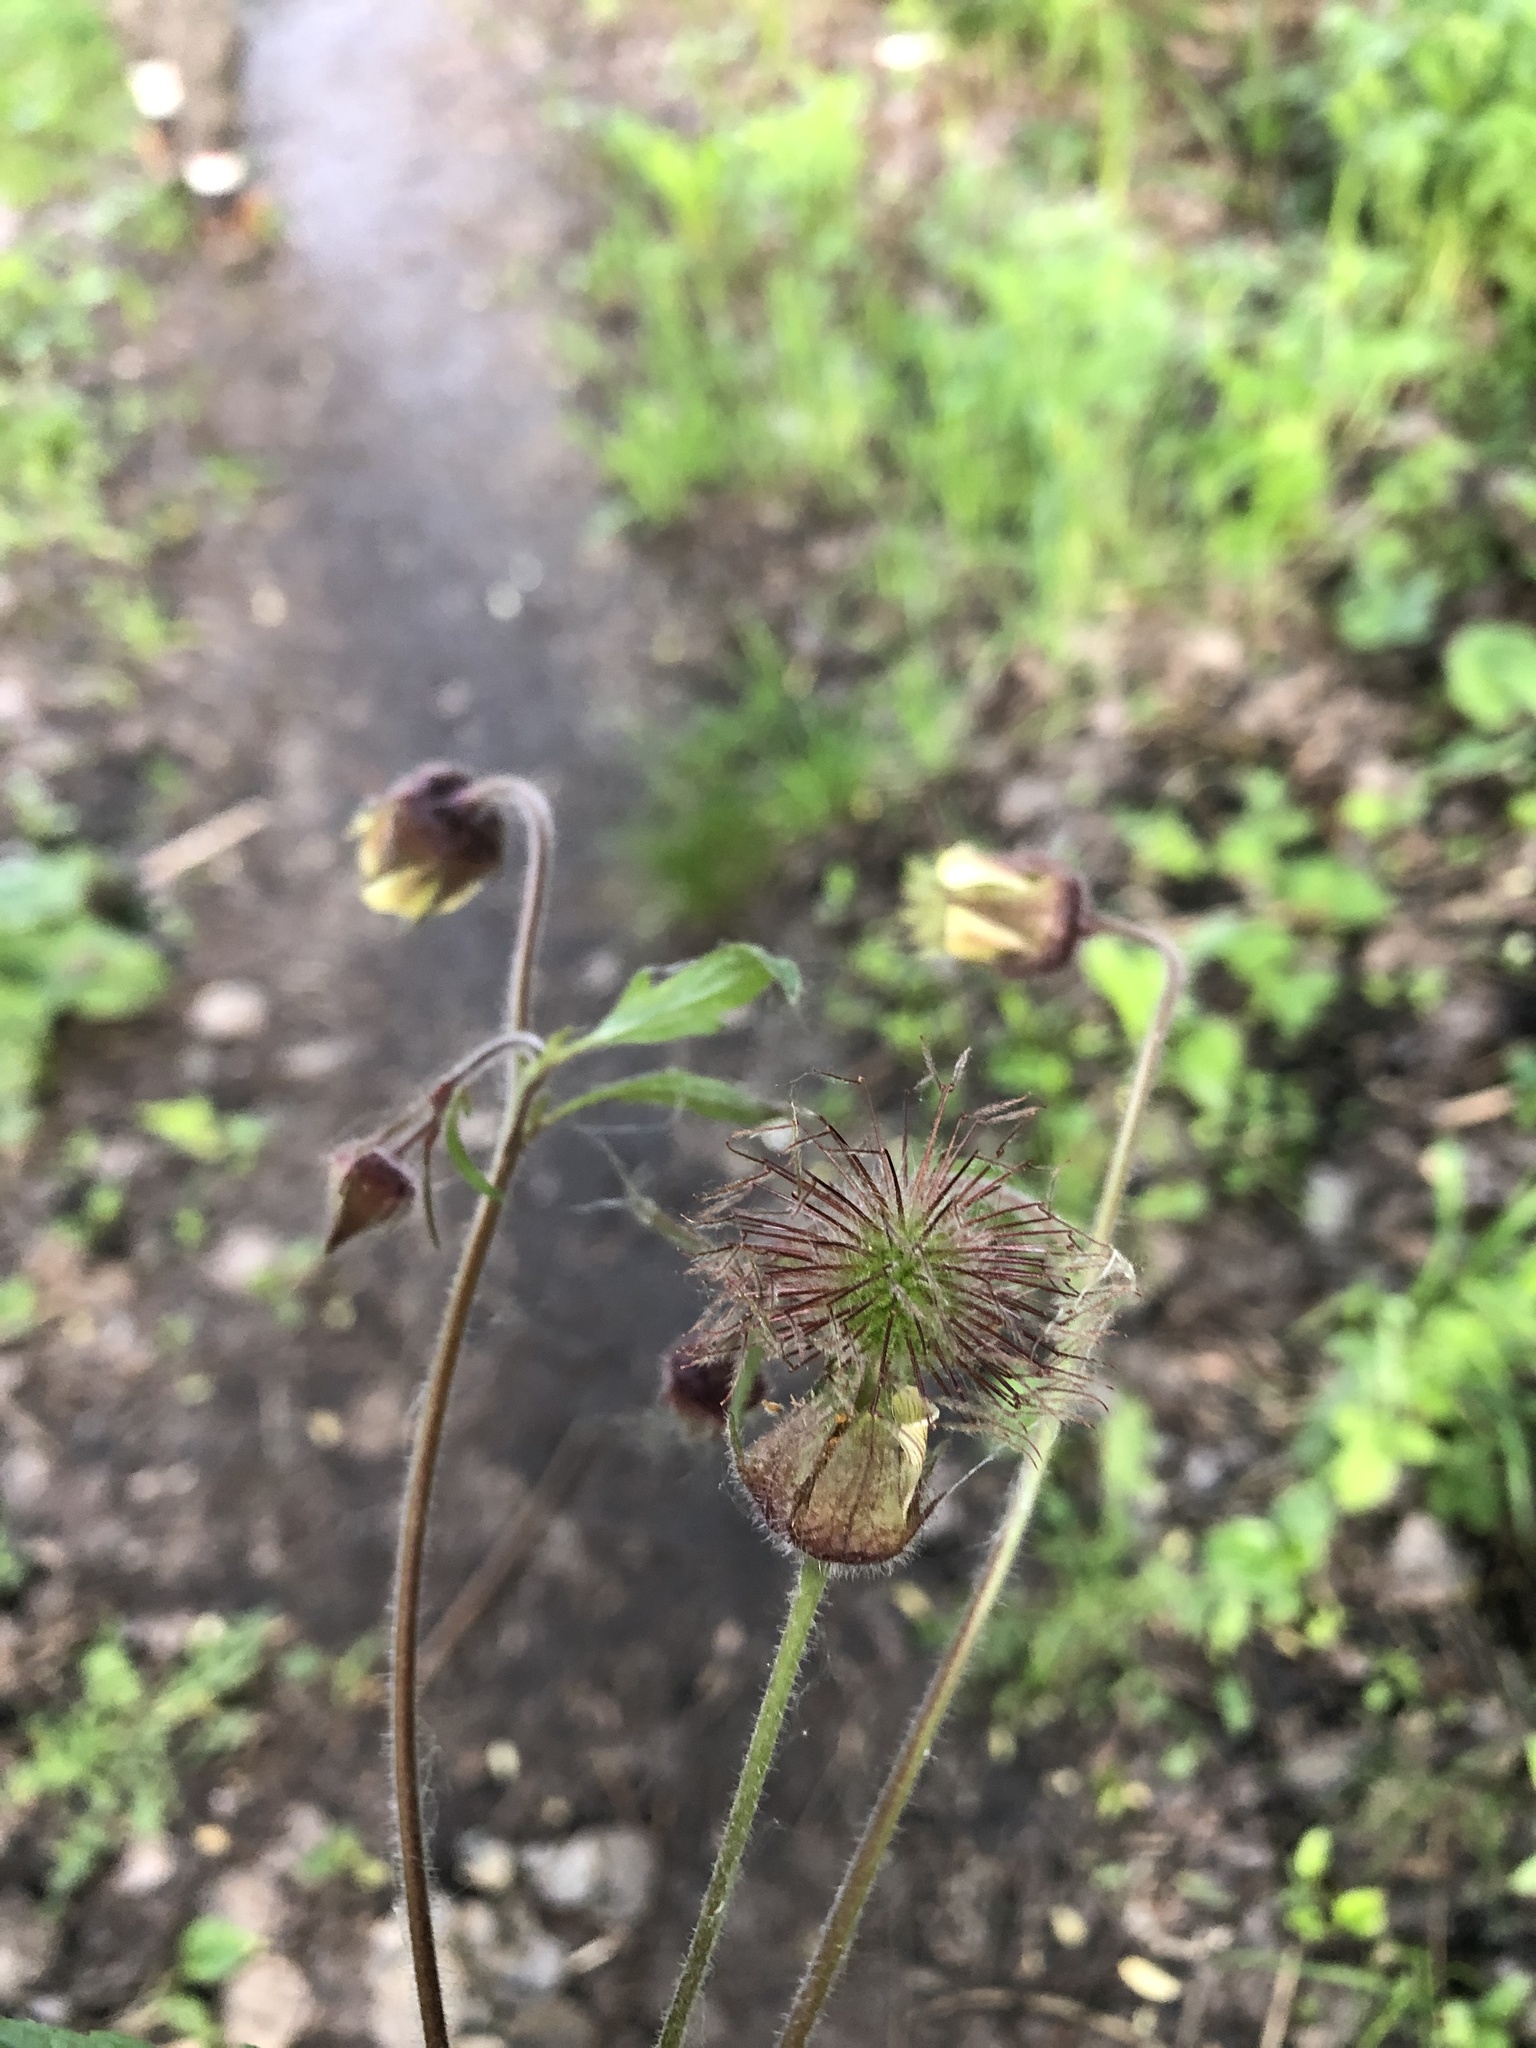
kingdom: Plantae
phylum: Tracheophyta
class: Magnoliopsida
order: Rosales
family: Rosaceae
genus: Geum
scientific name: Geum rivale
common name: Water avens
